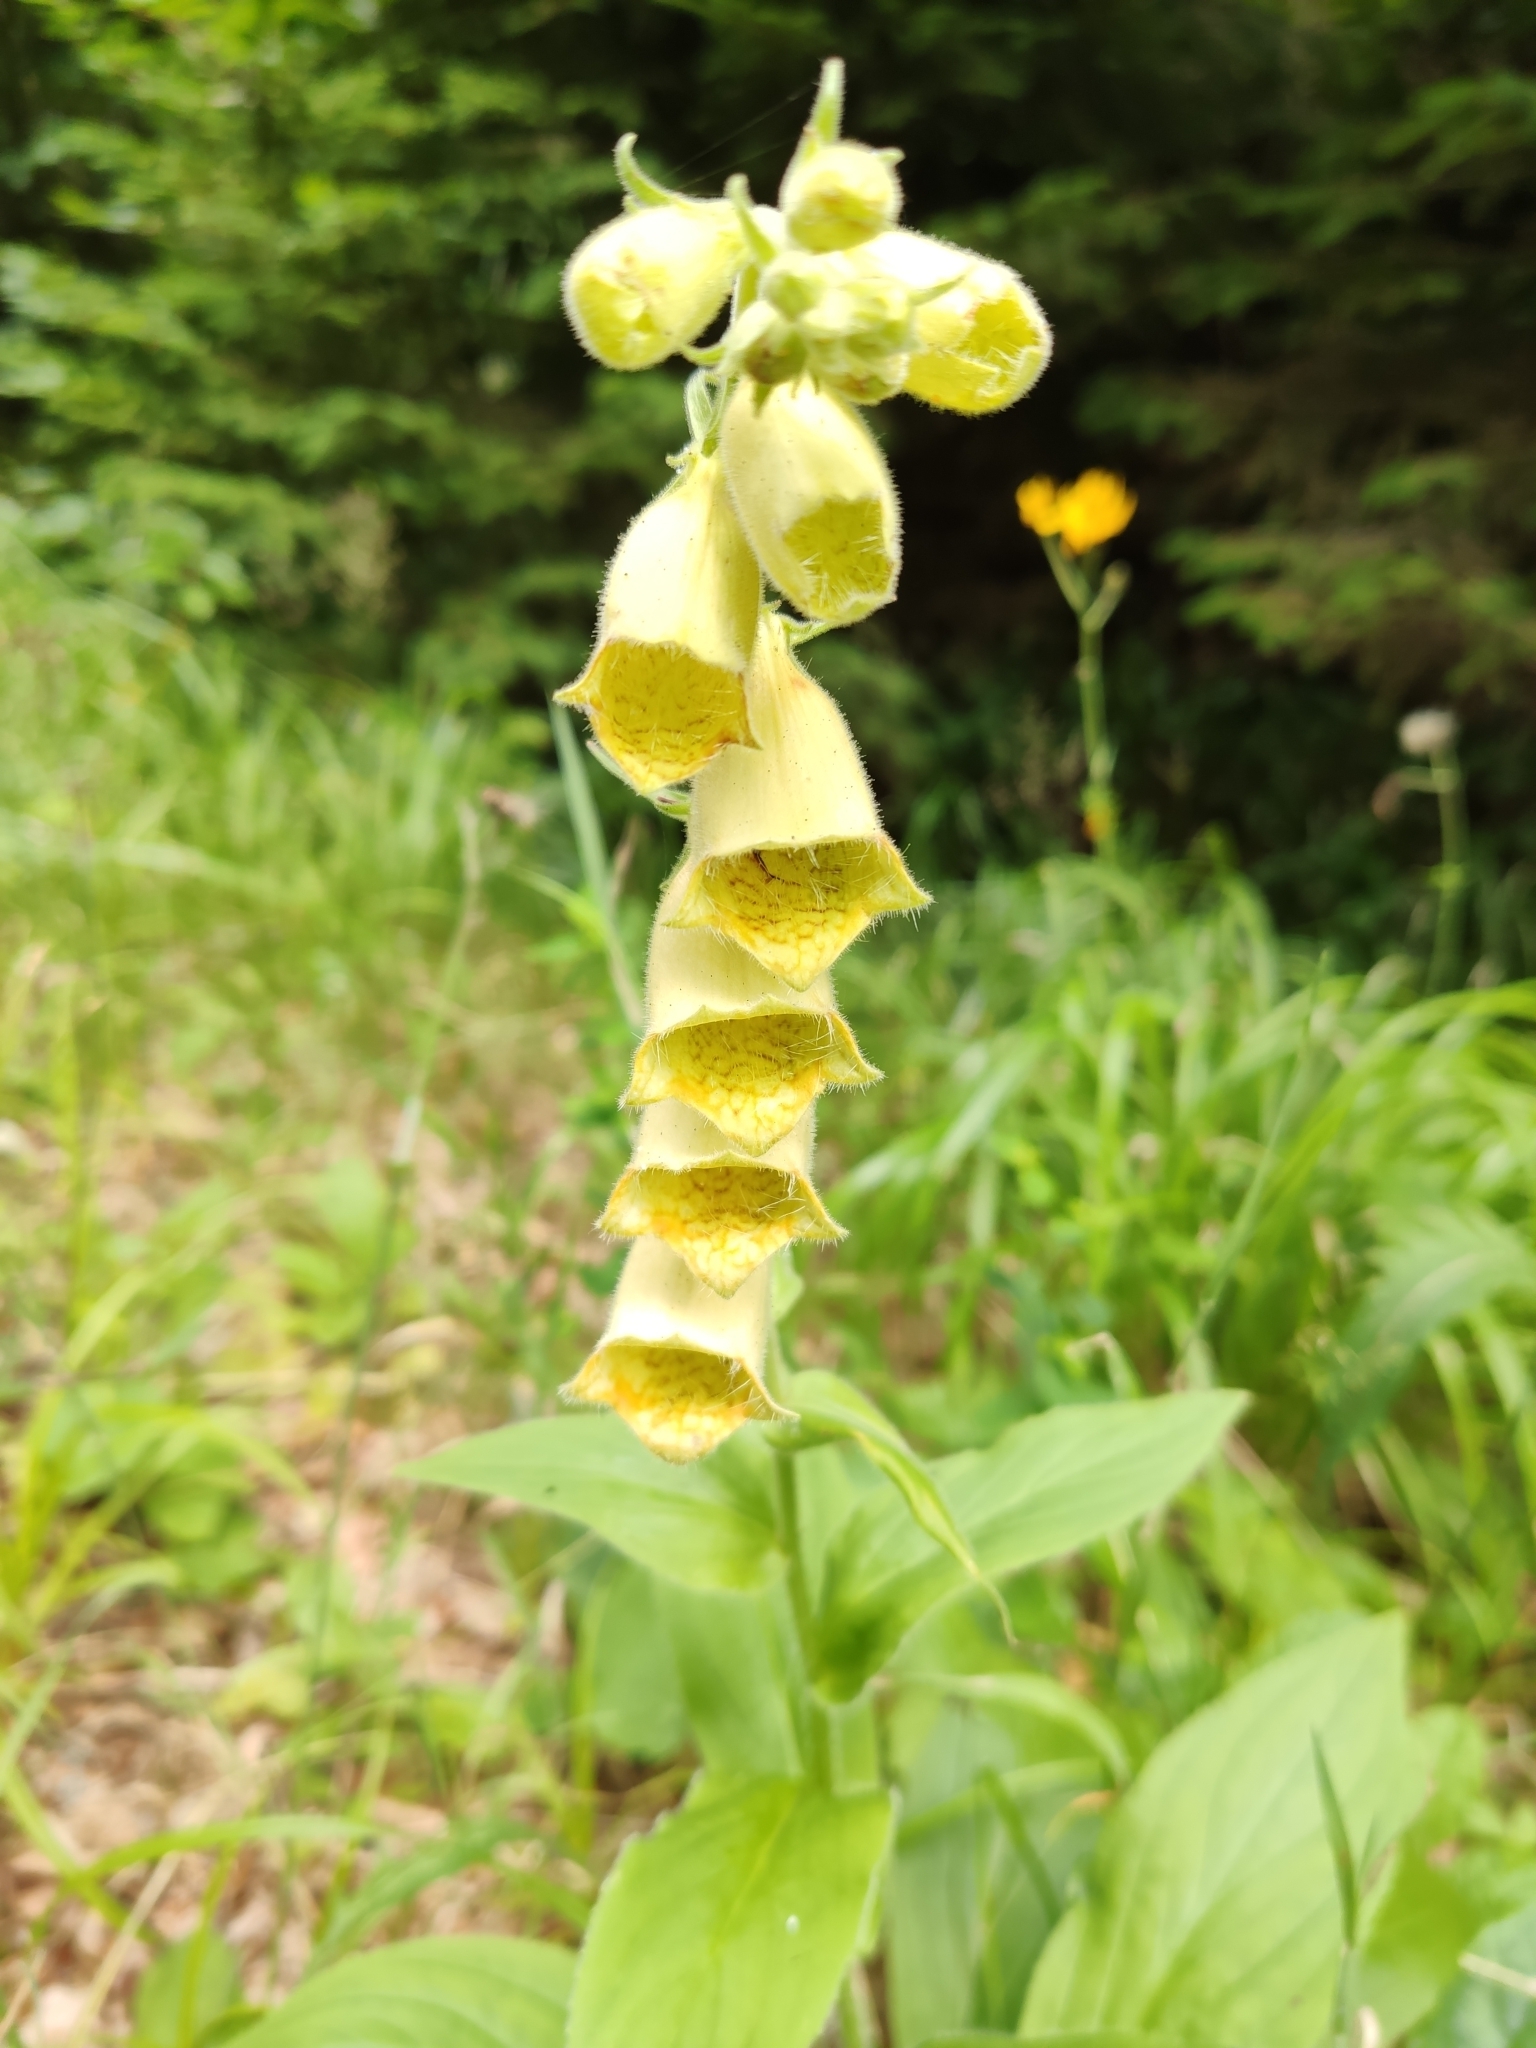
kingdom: Plantae
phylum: Tracheophyta
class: Magnoliopsida
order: Lamiales
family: Plantaginaceae
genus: Digitalis
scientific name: Digitalis grandiflora
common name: Yellow foxglove
